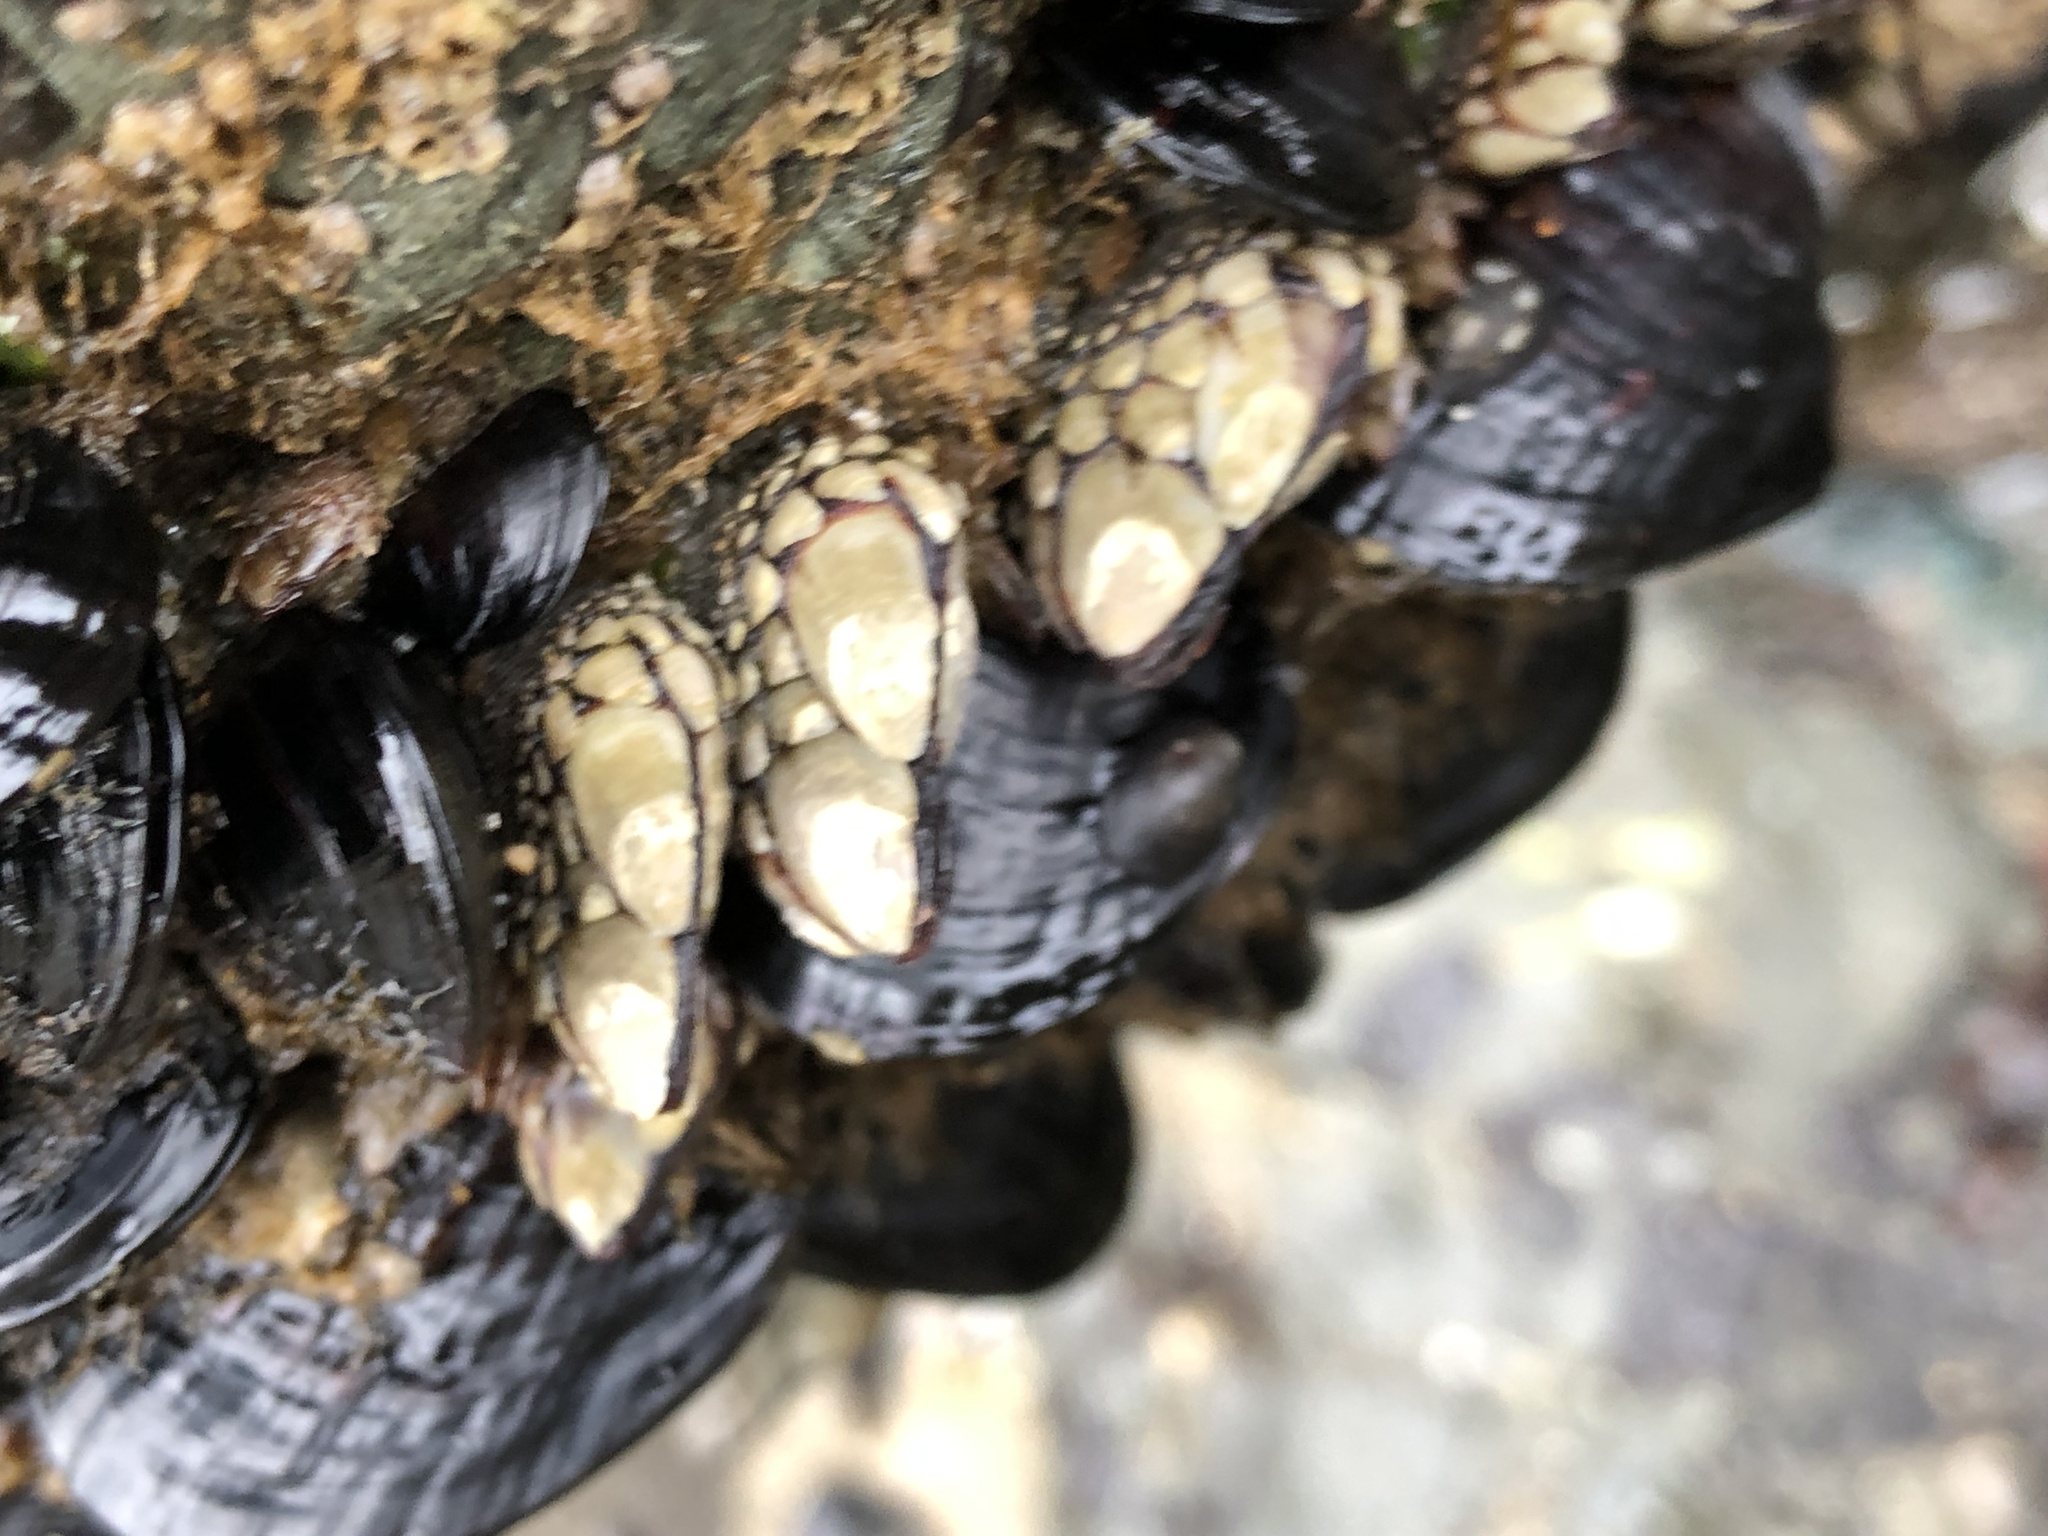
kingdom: Animalia
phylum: Arthropoda
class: Maxillopoda
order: Pedunculata
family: Pollicipedidae
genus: Pollicipes
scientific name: Pollicipes polymerus
